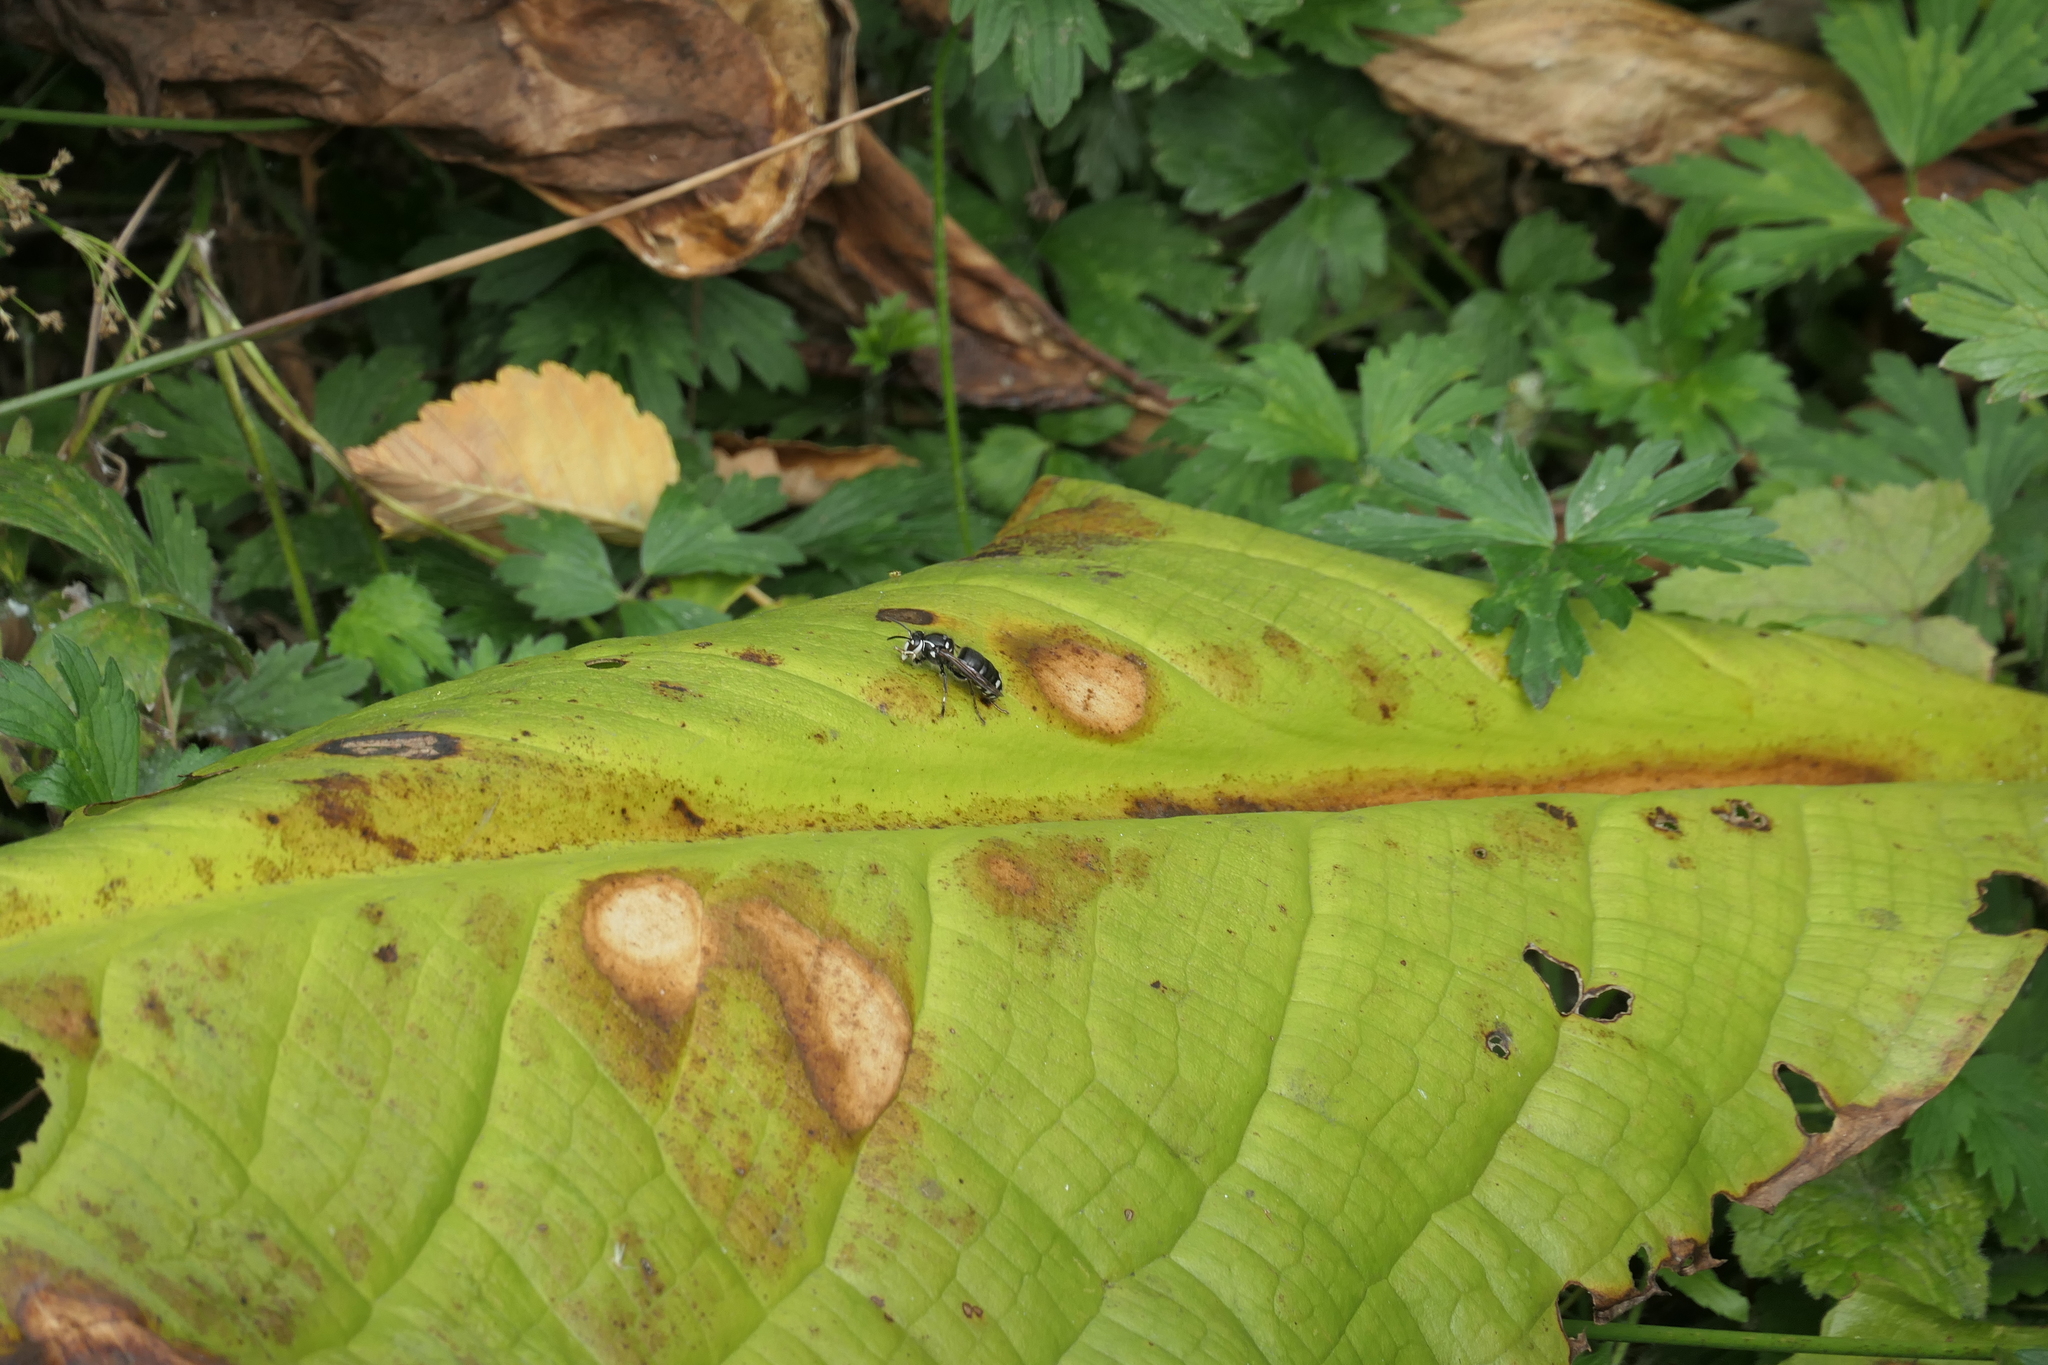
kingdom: Animalia
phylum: Arthropoda
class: Insecta
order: Hymenoptera
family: Vespidae
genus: Dolichovespula
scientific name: Dolichovespula maculata
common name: Bald-faced hornet
